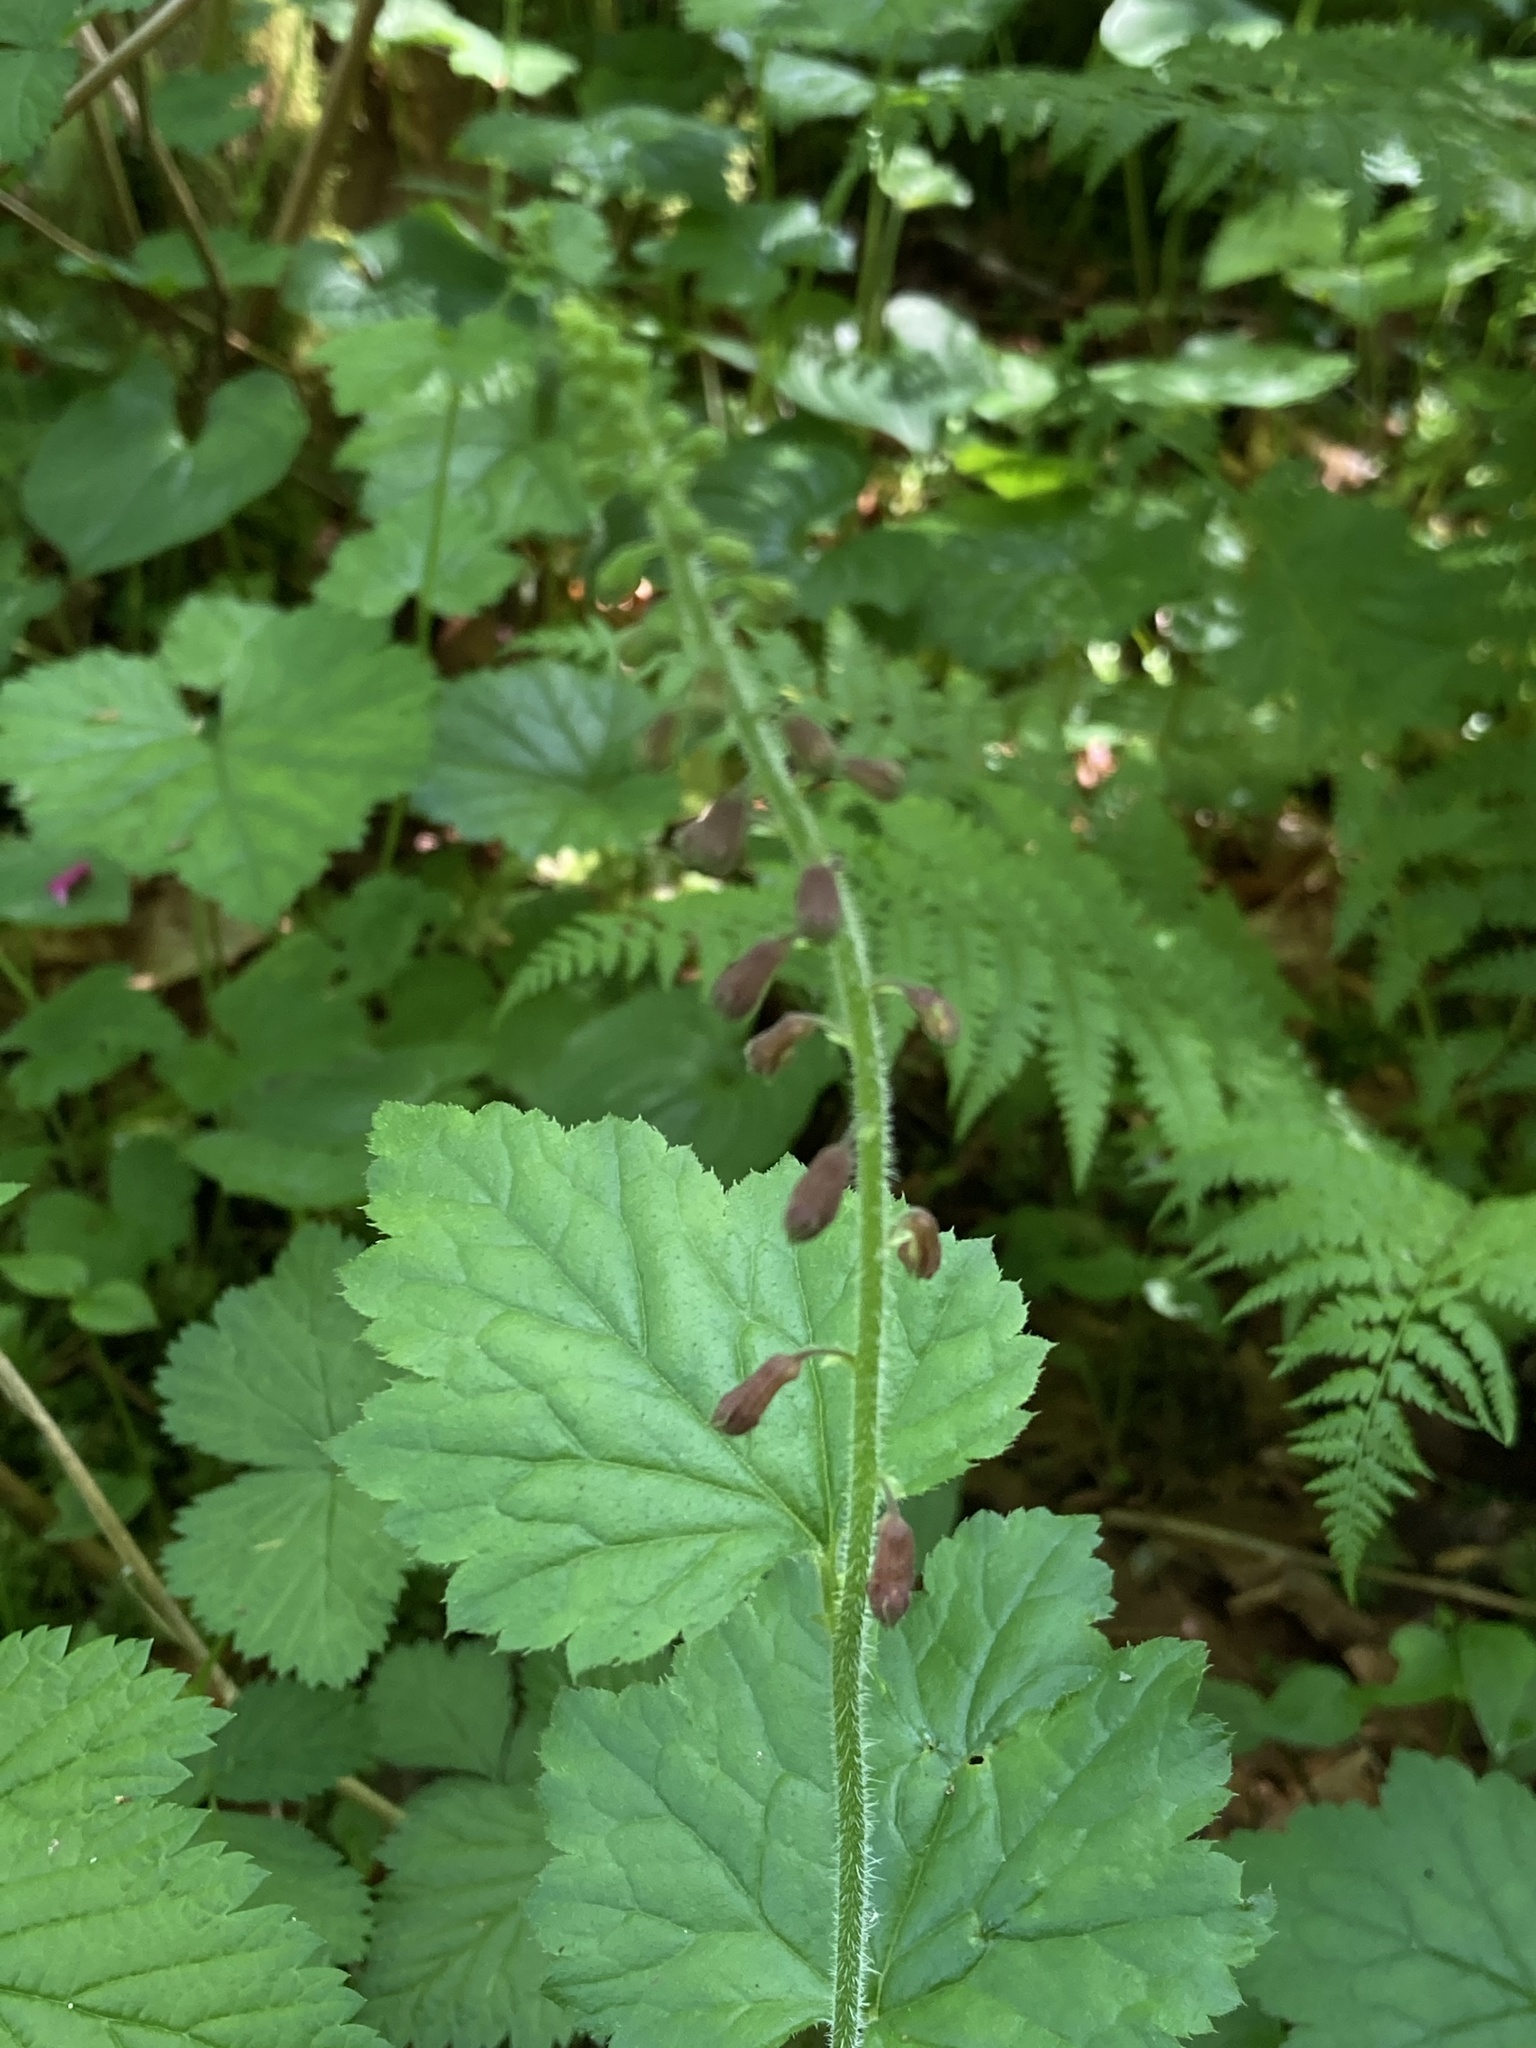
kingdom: Plantae
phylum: Tracheophyta
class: Magnoliopsida
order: Saxifragales
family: Saxifragaceae
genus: Tolmiea
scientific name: Tolmiea menziesii
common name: Pick-a-back-plant
